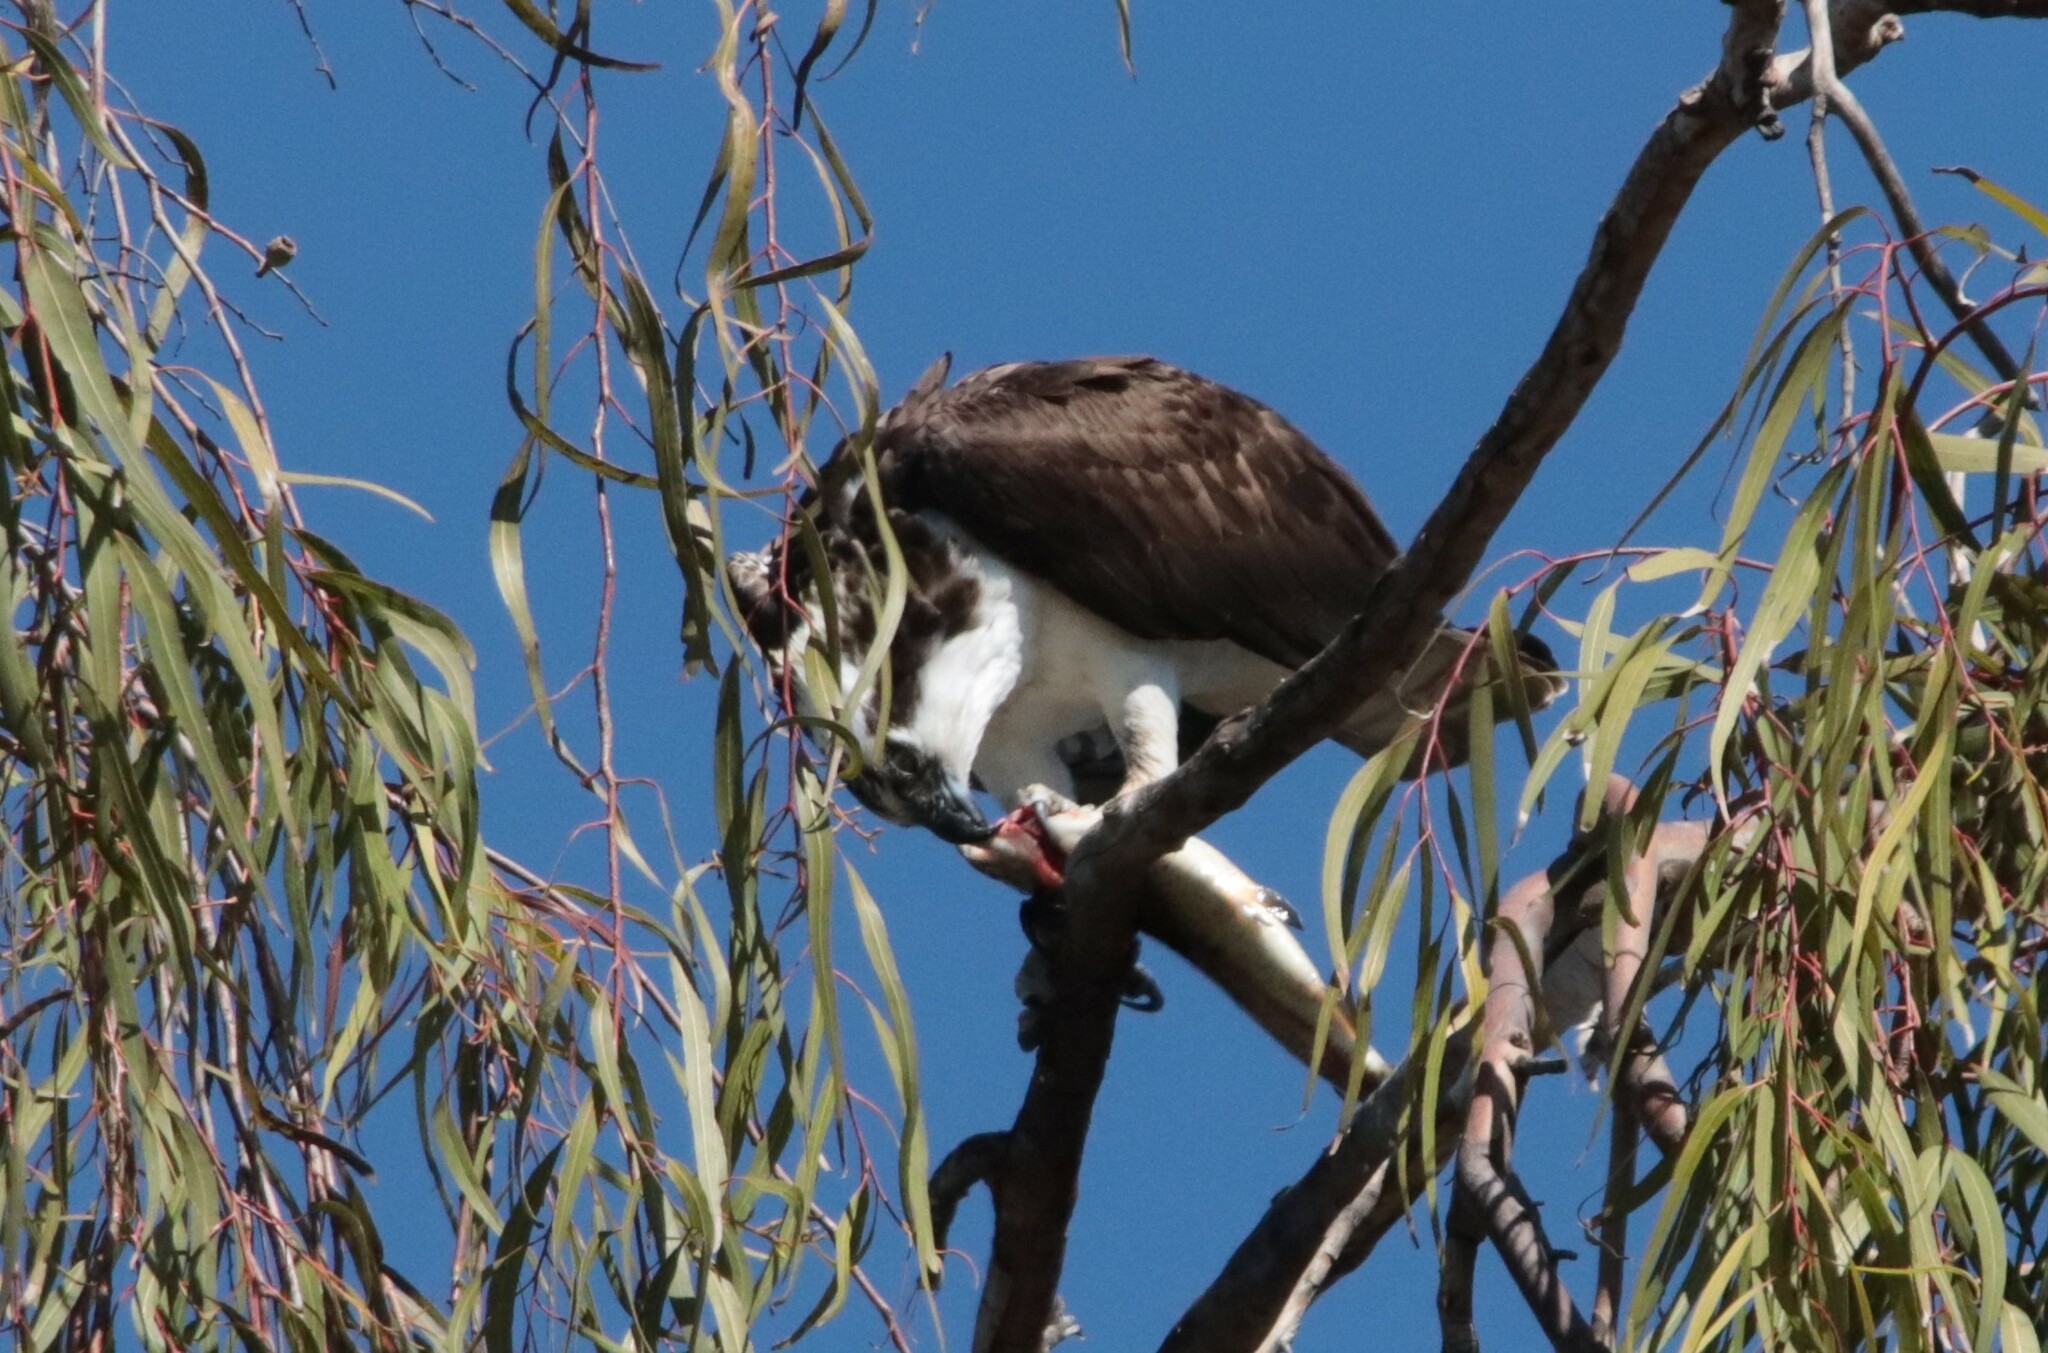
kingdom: Animalia
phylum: Chordata
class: Aves
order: Accipitriformes
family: Pandionidae
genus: Pandion
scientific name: Pandion haliaetus
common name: Osprey
